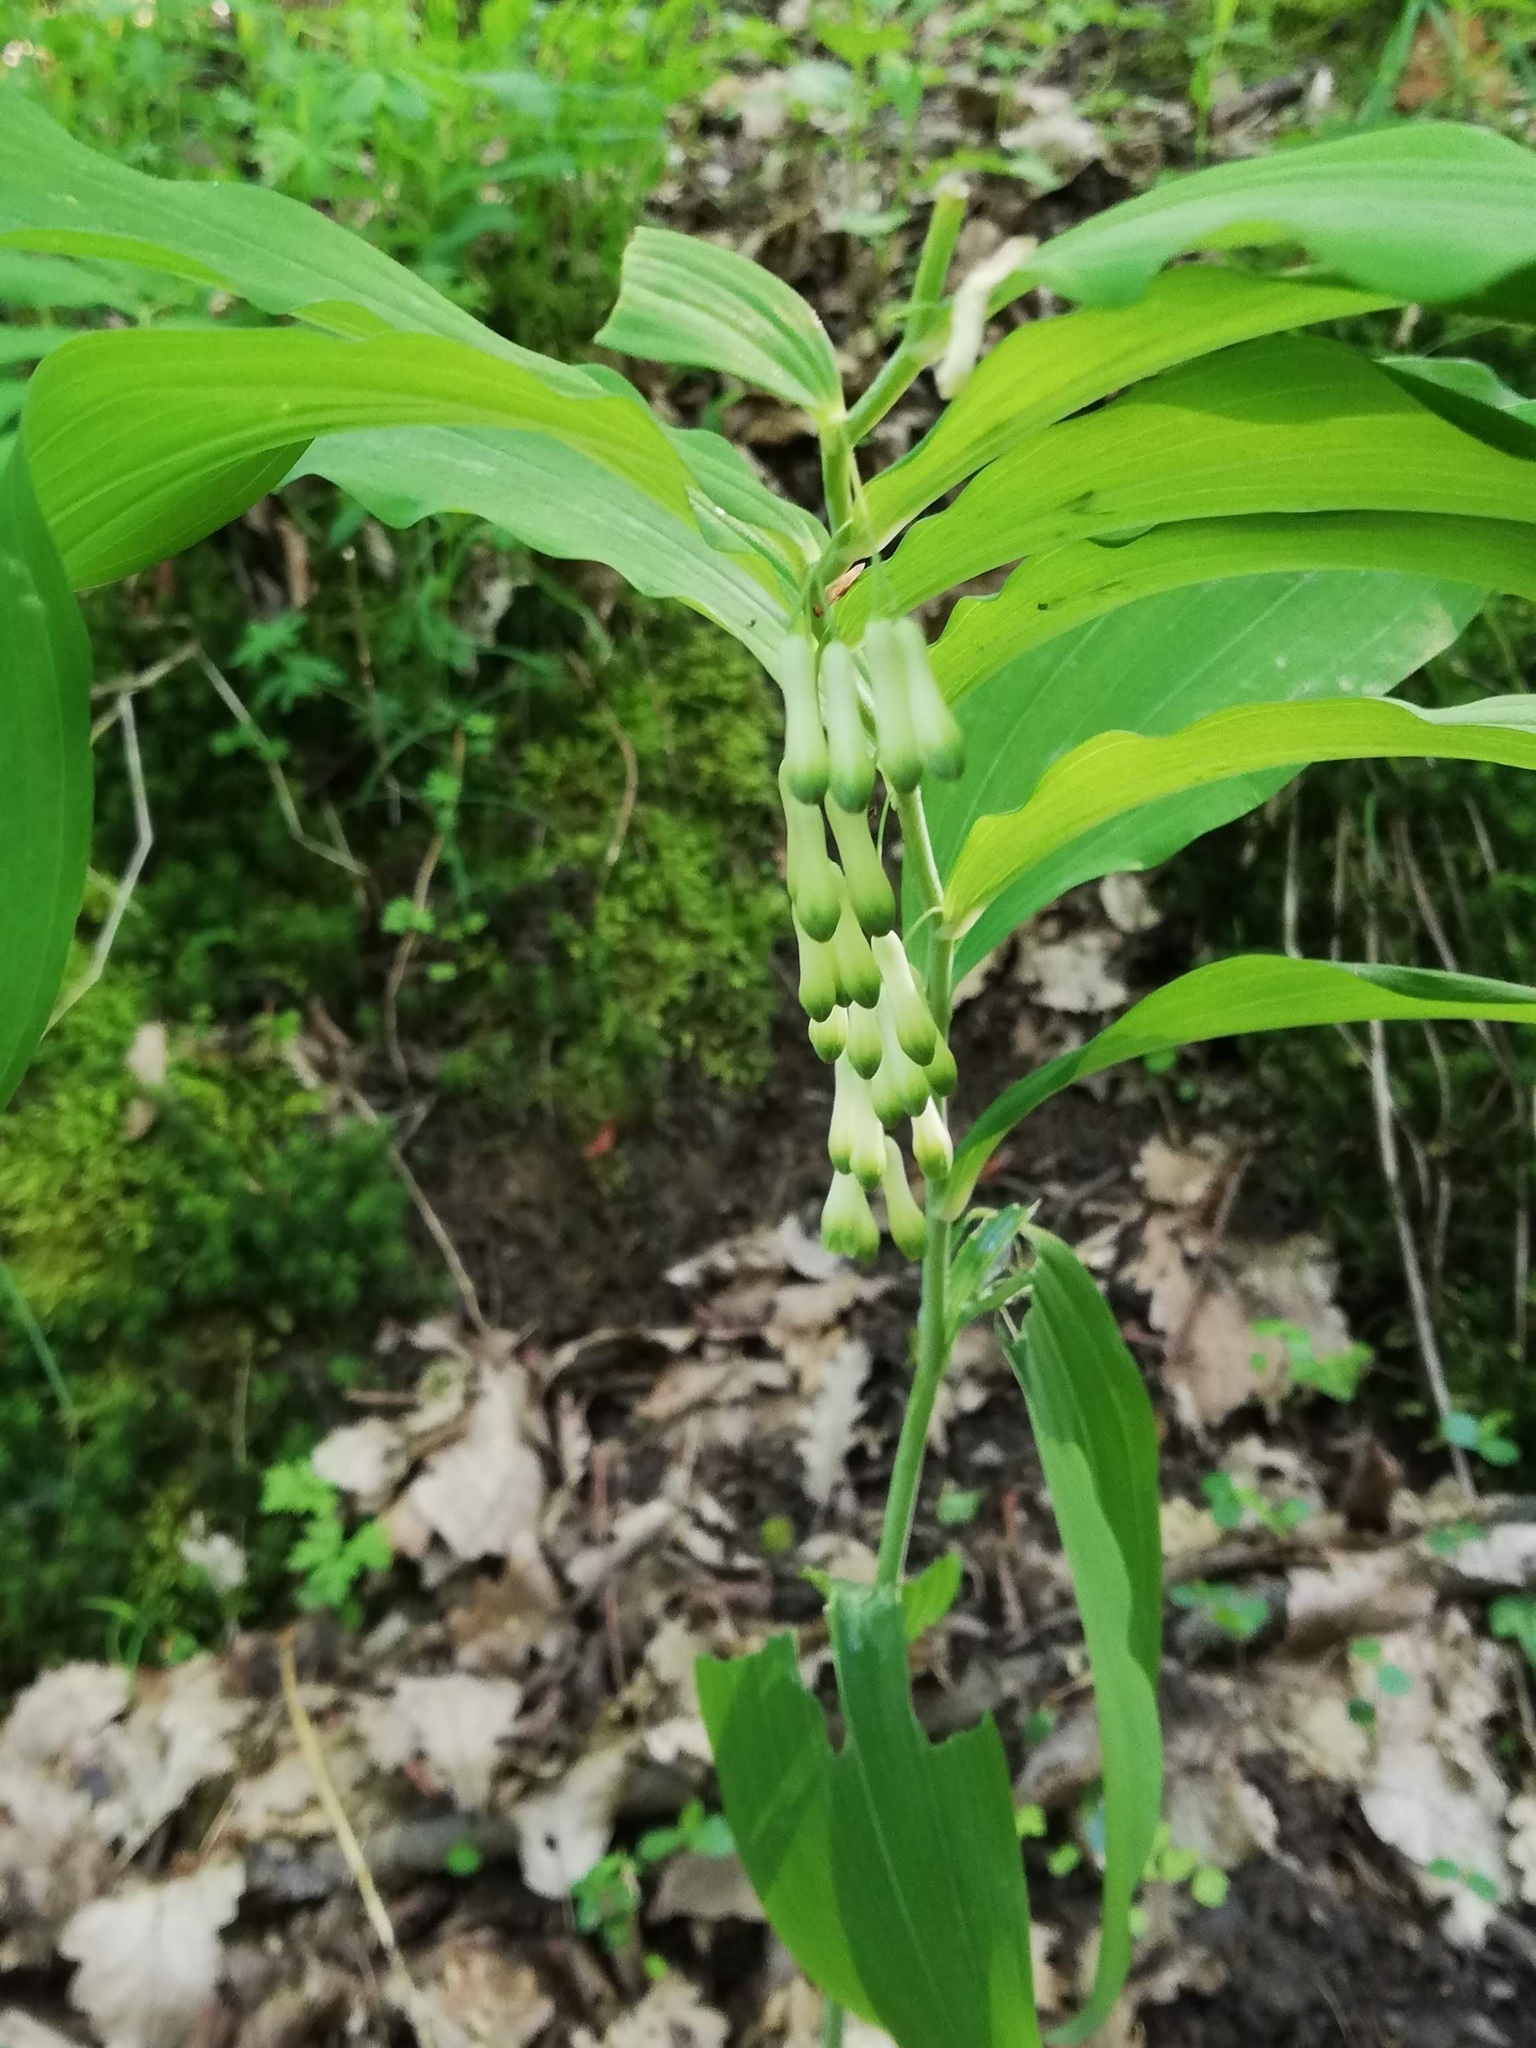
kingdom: Plantae
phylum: Tracheophyta
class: Liliopsida
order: Asparagales
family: Asparagaceae
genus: Polygonatum
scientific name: Polygonatum multiflorum
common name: Solomon's-seal
